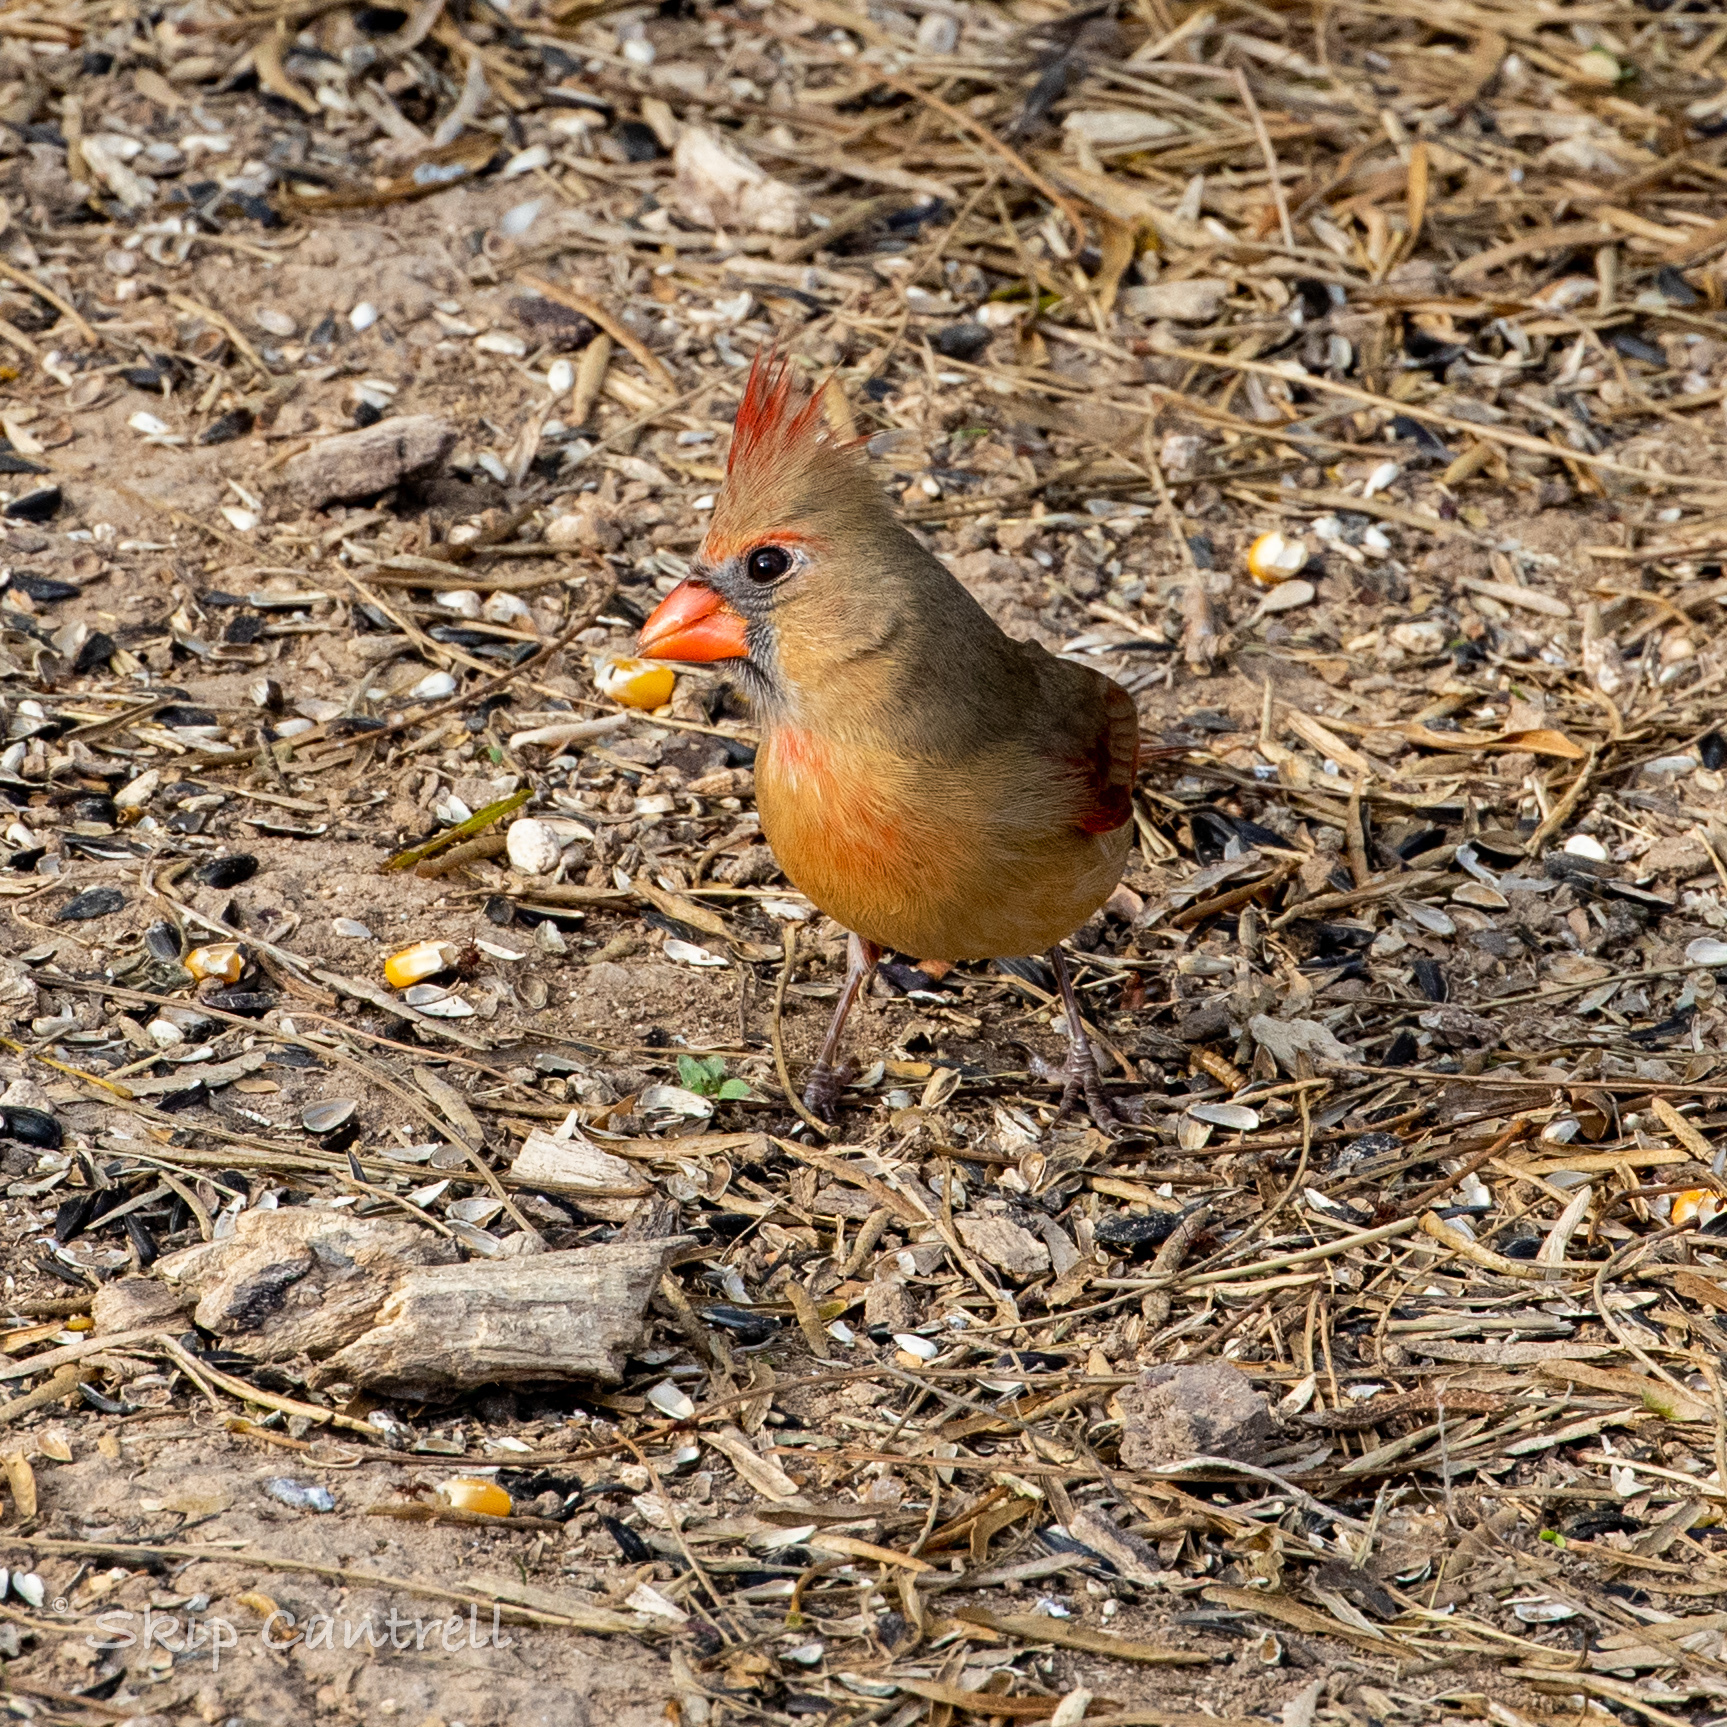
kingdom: Animalia
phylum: Chordata
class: Aves
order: Passeriformes
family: Cardinalidae
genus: Cardinalis
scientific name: Cardinalis cardinalis
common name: Northern cardinal
